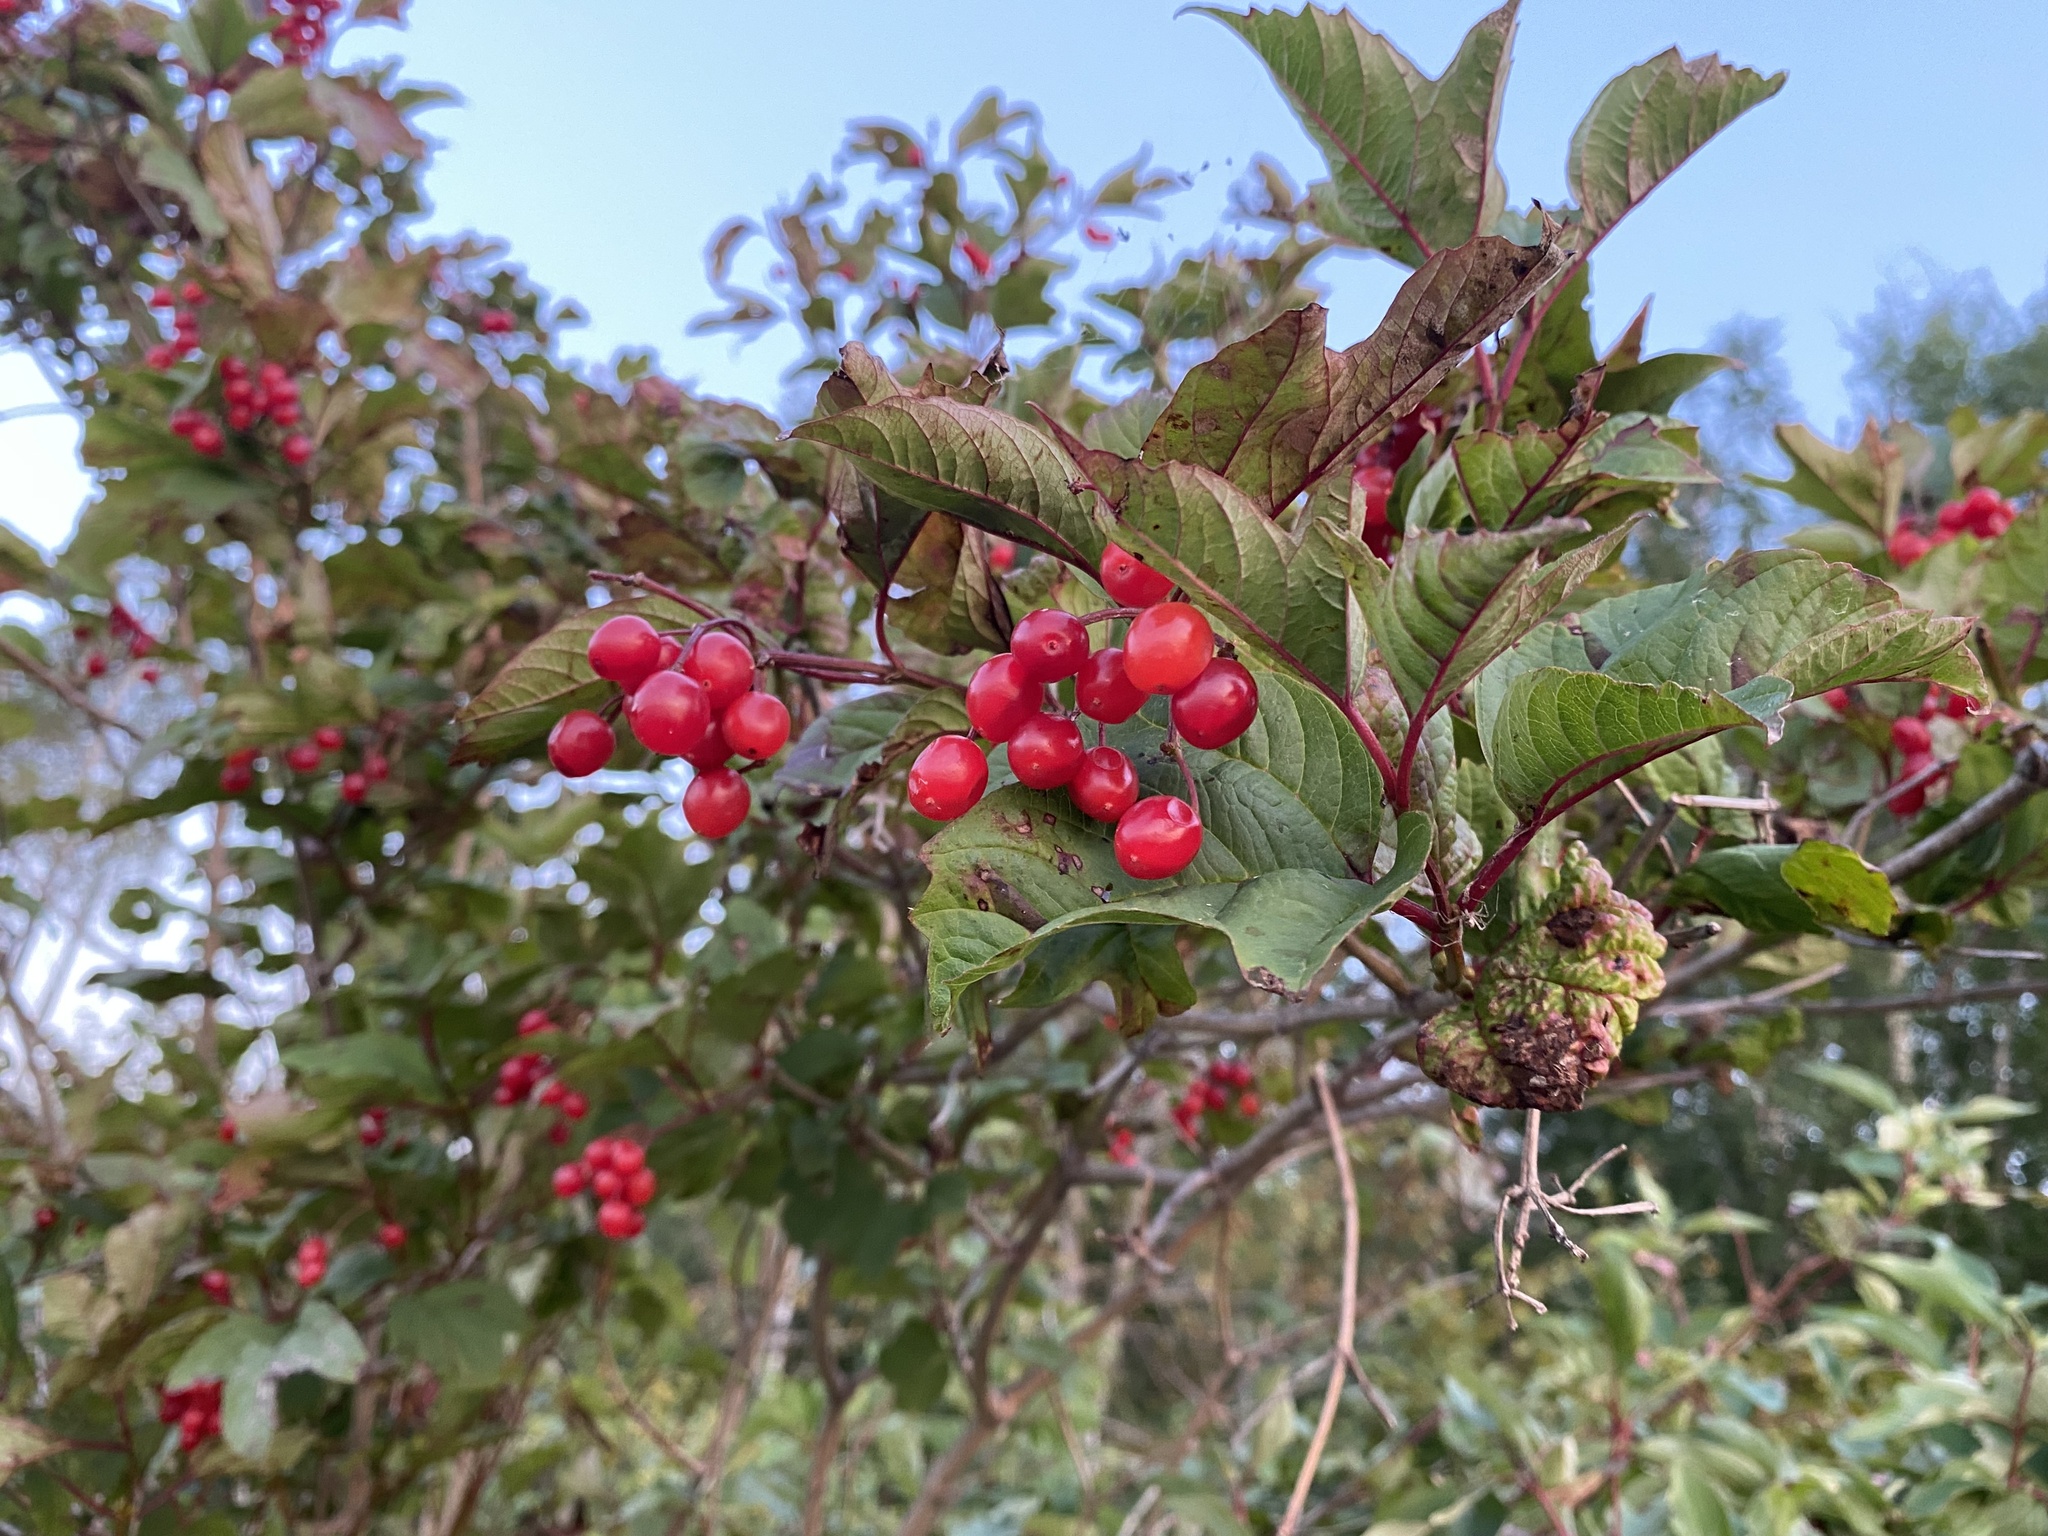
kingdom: Plantae
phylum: Tracheophyta
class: Magnoliopsida
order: Dipsacales
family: Viburnaceae
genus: Viburnum
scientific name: Viburnum opulus
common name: Guelder-rose
